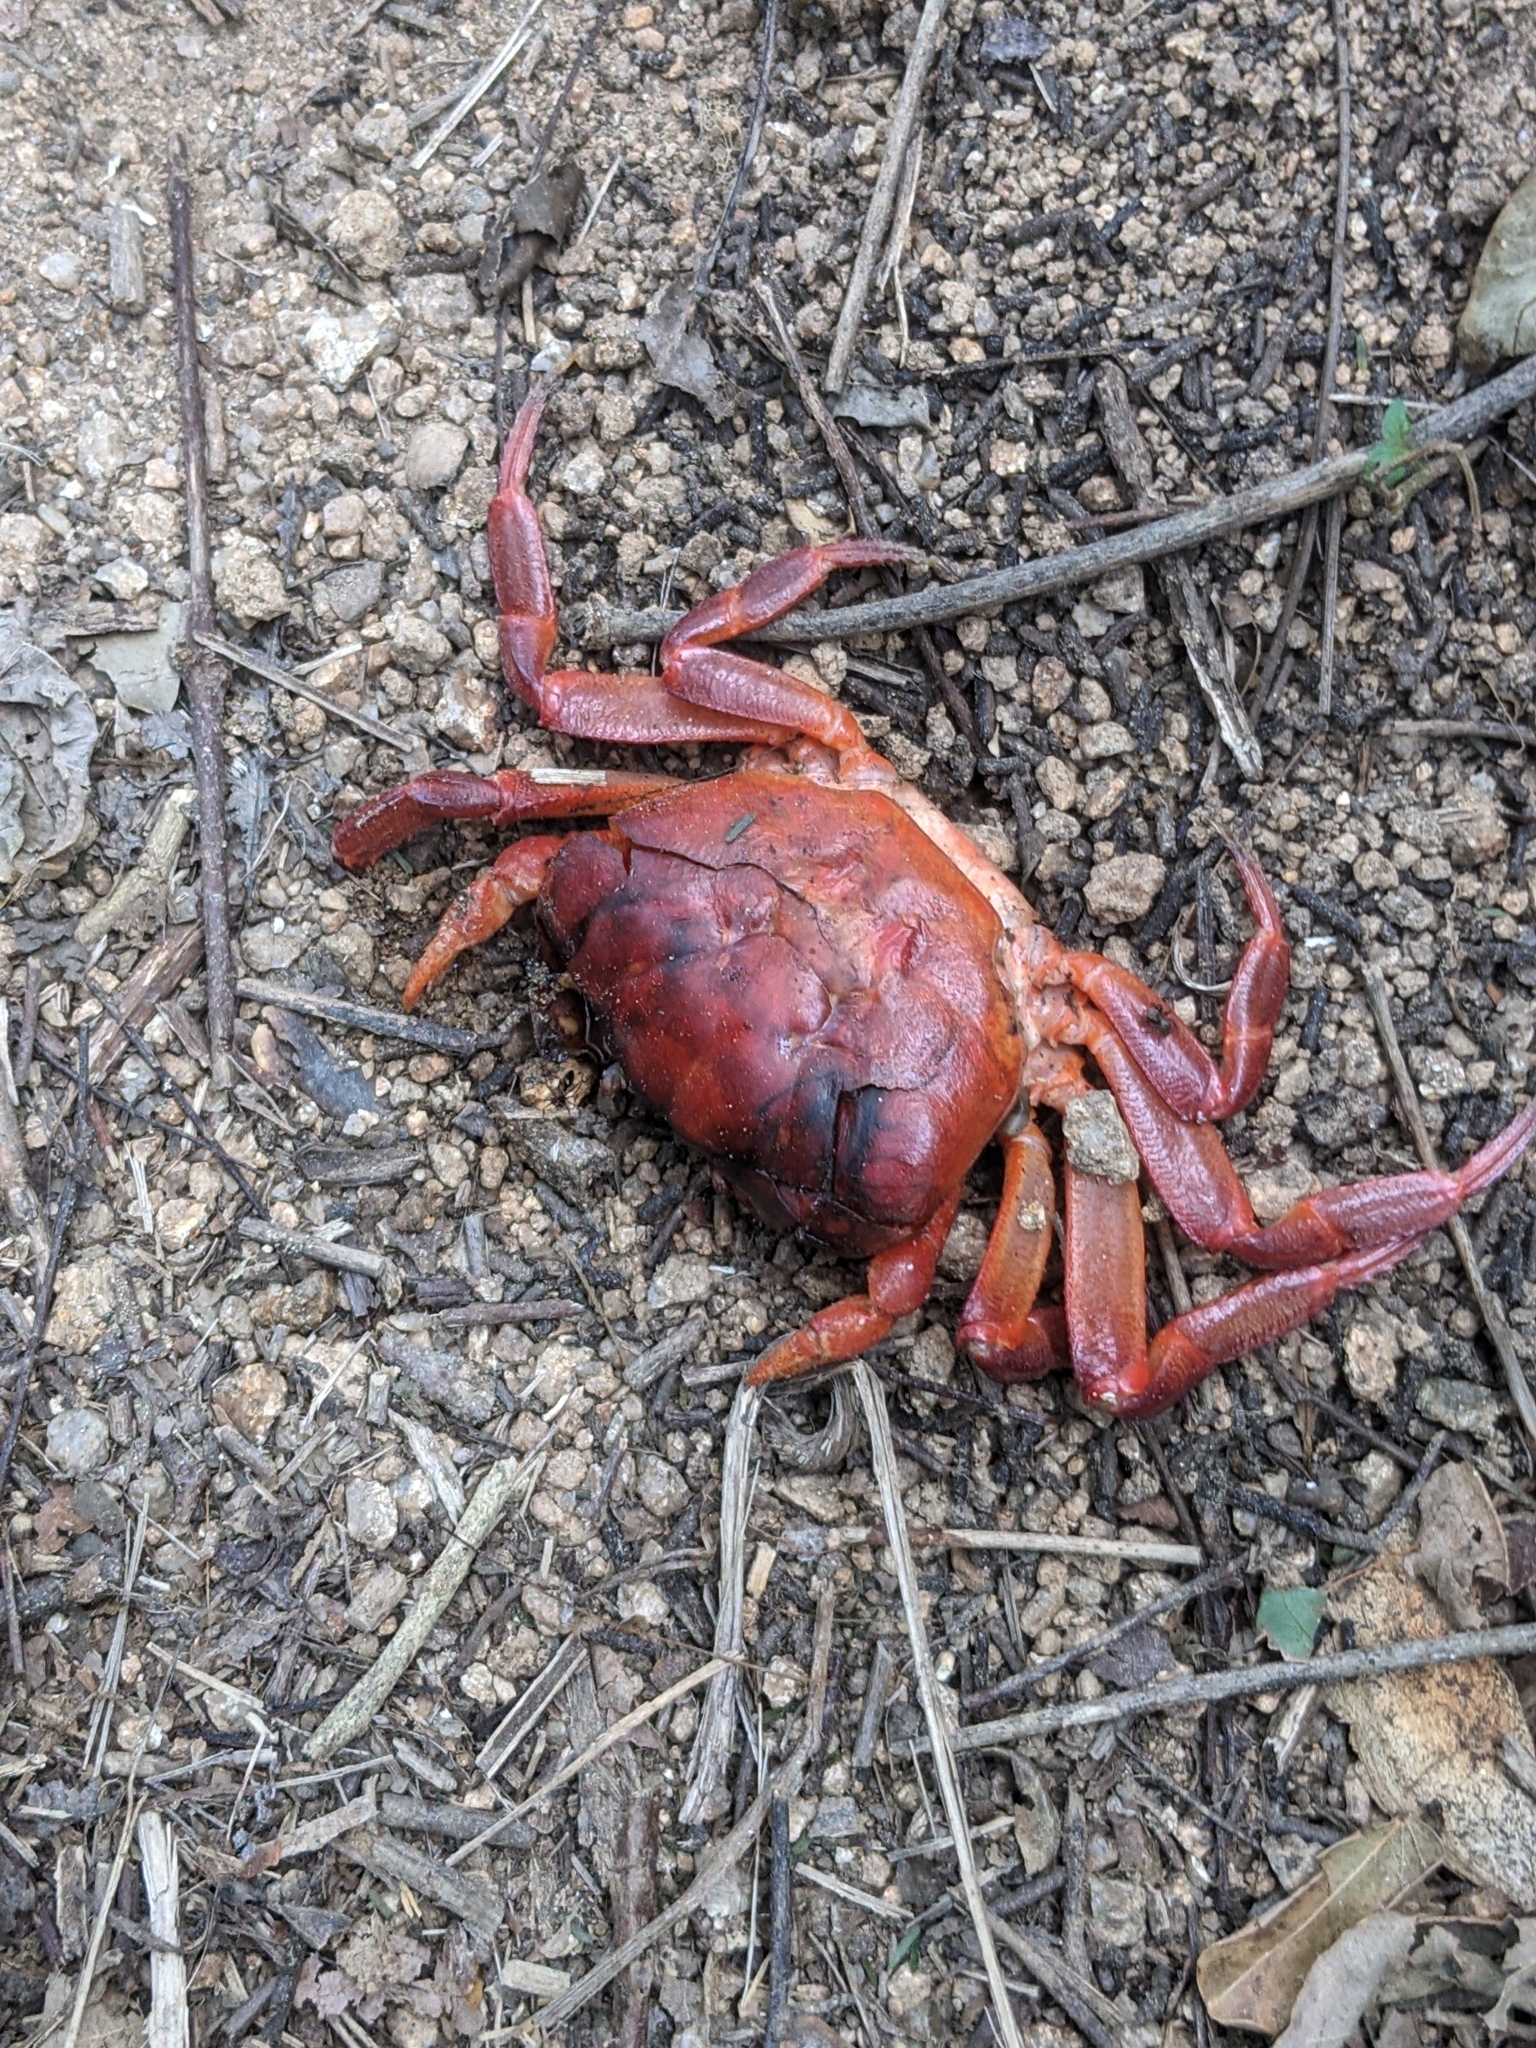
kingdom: Animalia
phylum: Arthropoda
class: Malacostraca
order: Decapoda
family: Gecarcinidae
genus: Johngarthia
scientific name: Johngarthia planata
